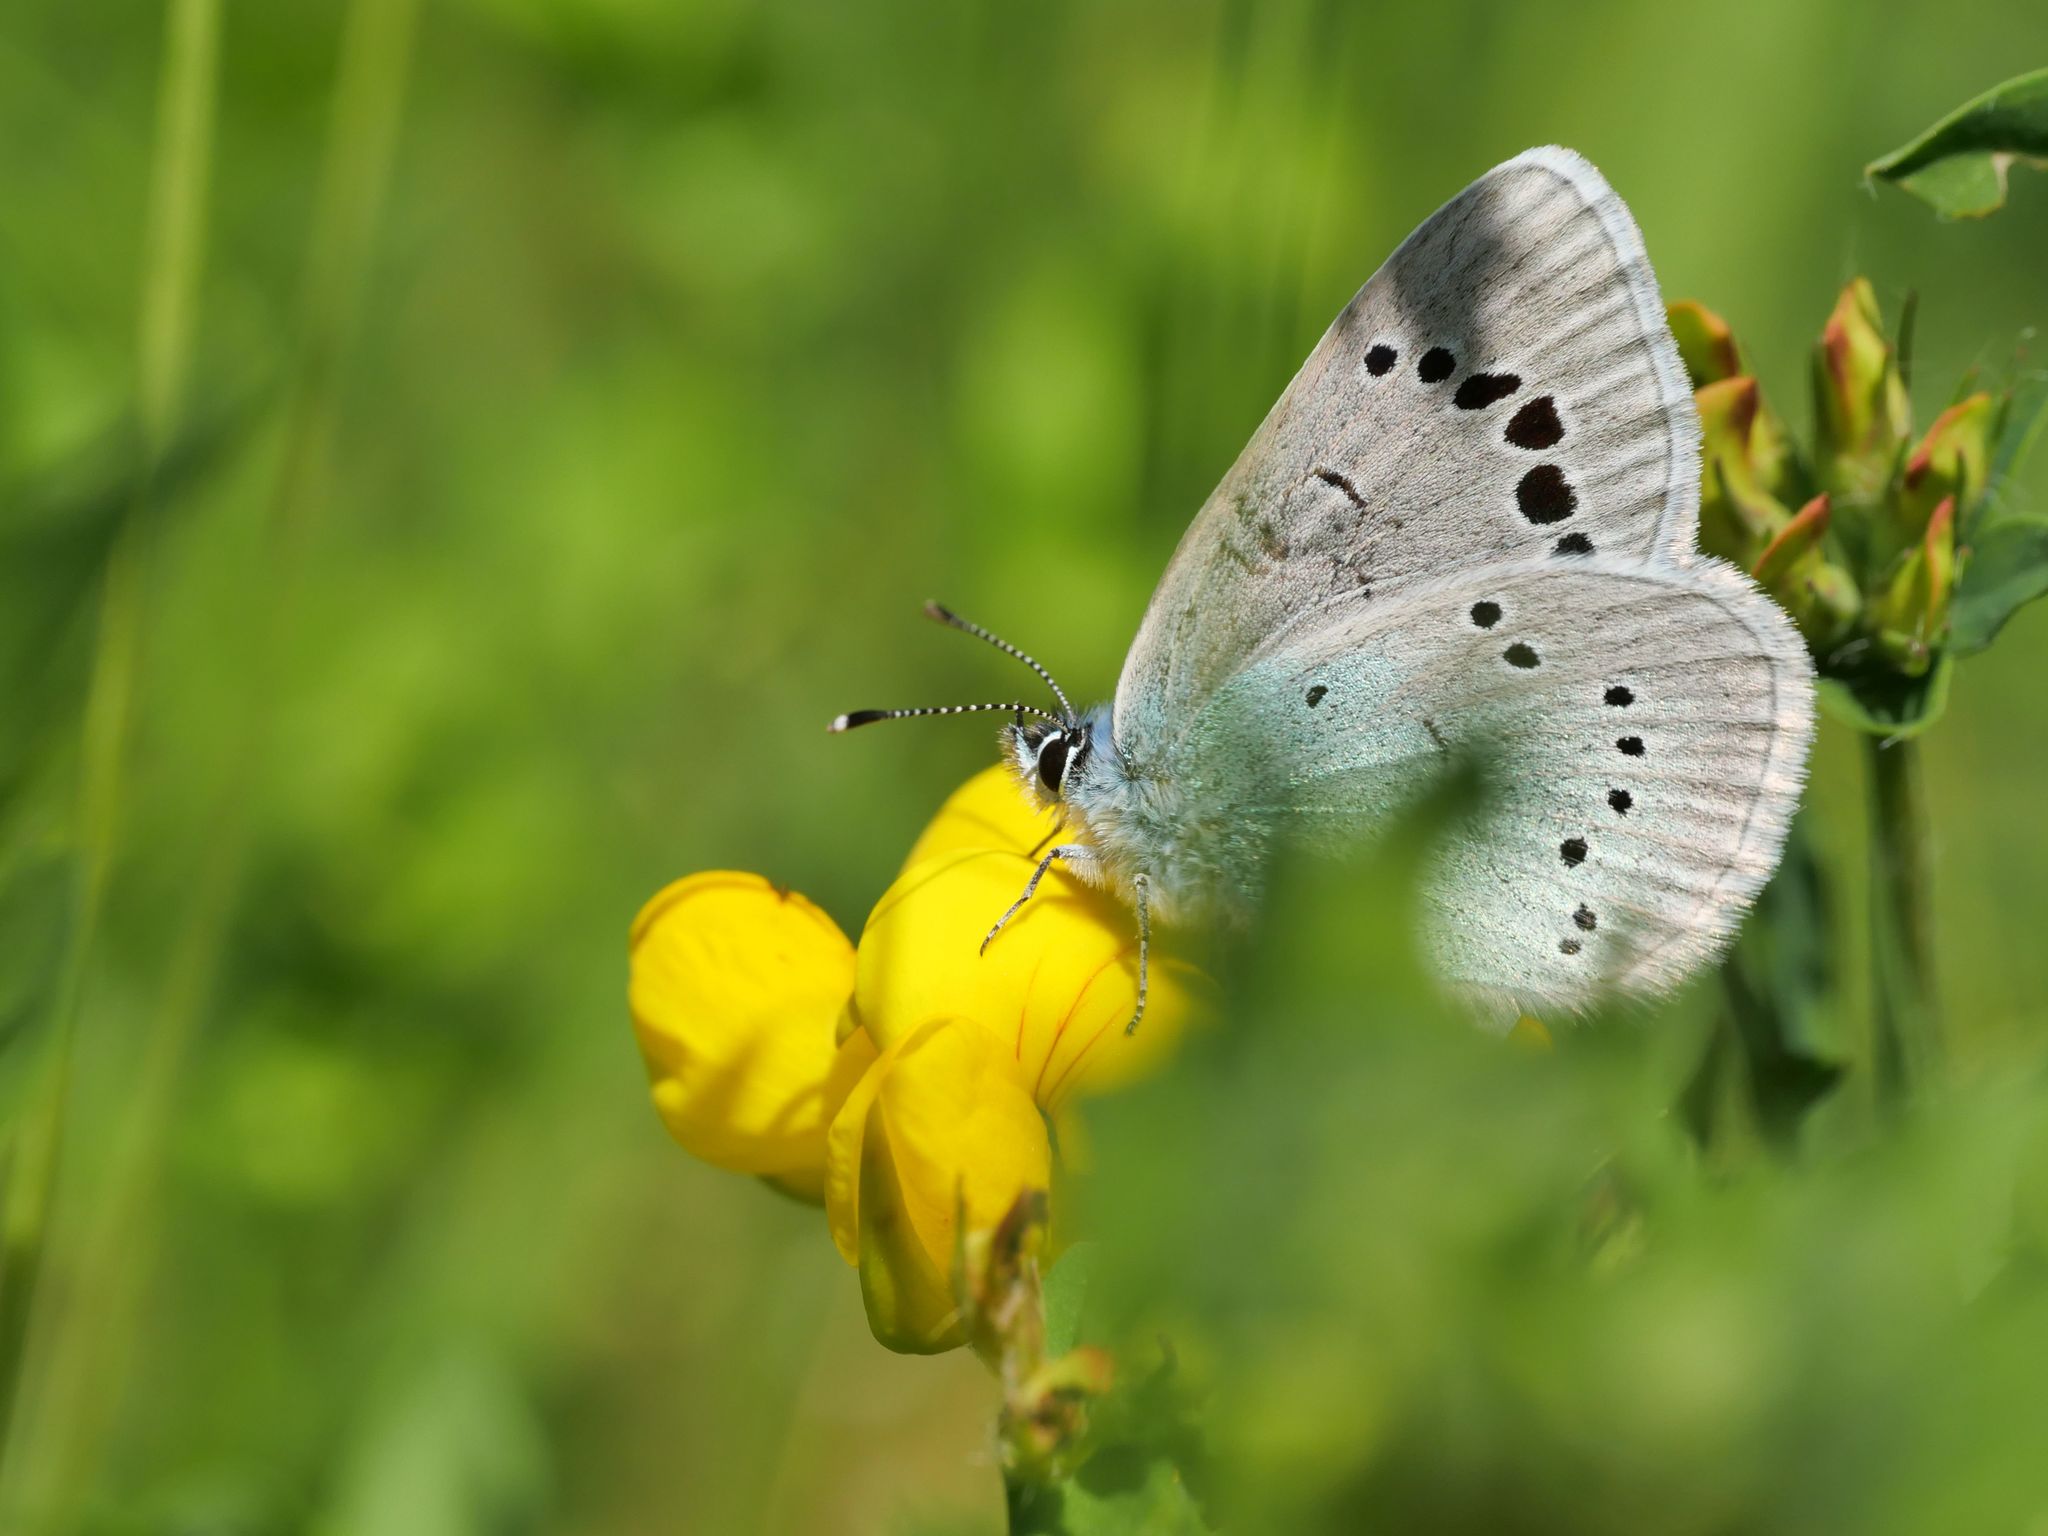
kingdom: Animalia
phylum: Arthropoda
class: Insecta
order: Lepidoptera
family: Lycaenidae
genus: Glaucopsyche
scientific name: Glaucopsyche alexis
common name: Green-underside blue
